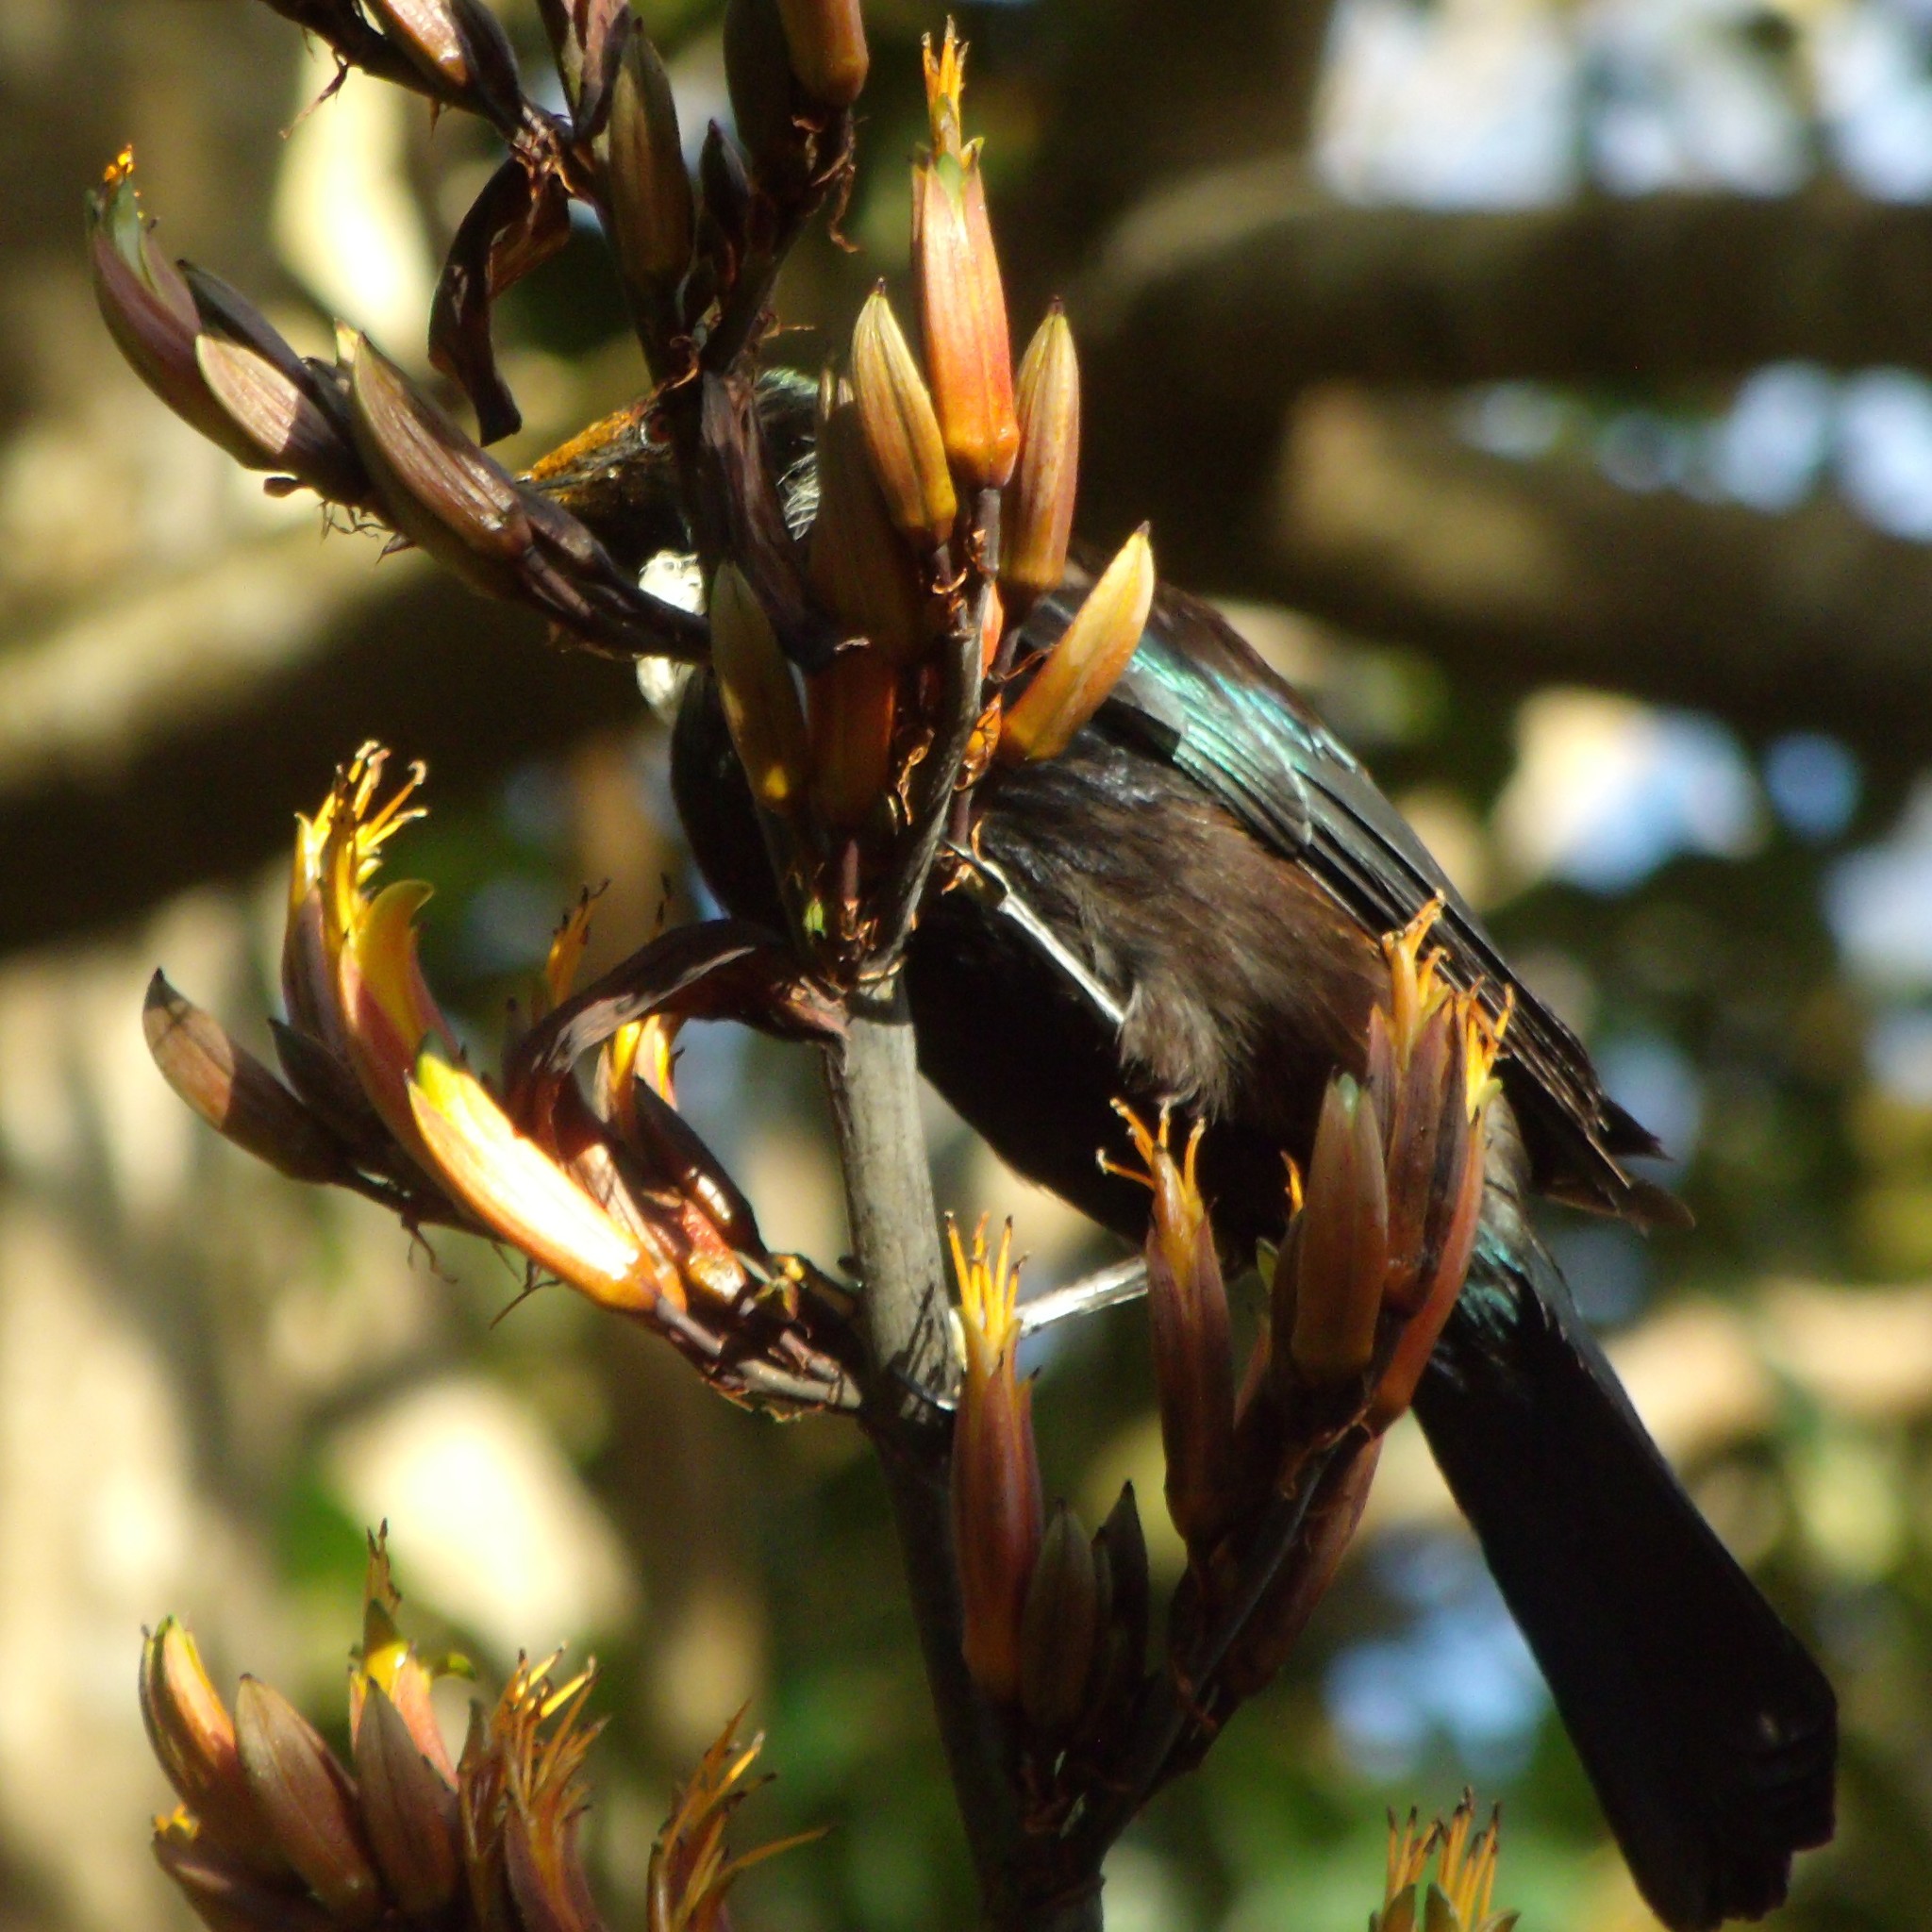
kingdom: Animalia
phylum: Chordata
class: Aves
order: Passeriformes
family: Meliphagidae
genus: Prosthemadera
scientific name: Prosthemadera novaeseelandiae
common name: Tui
